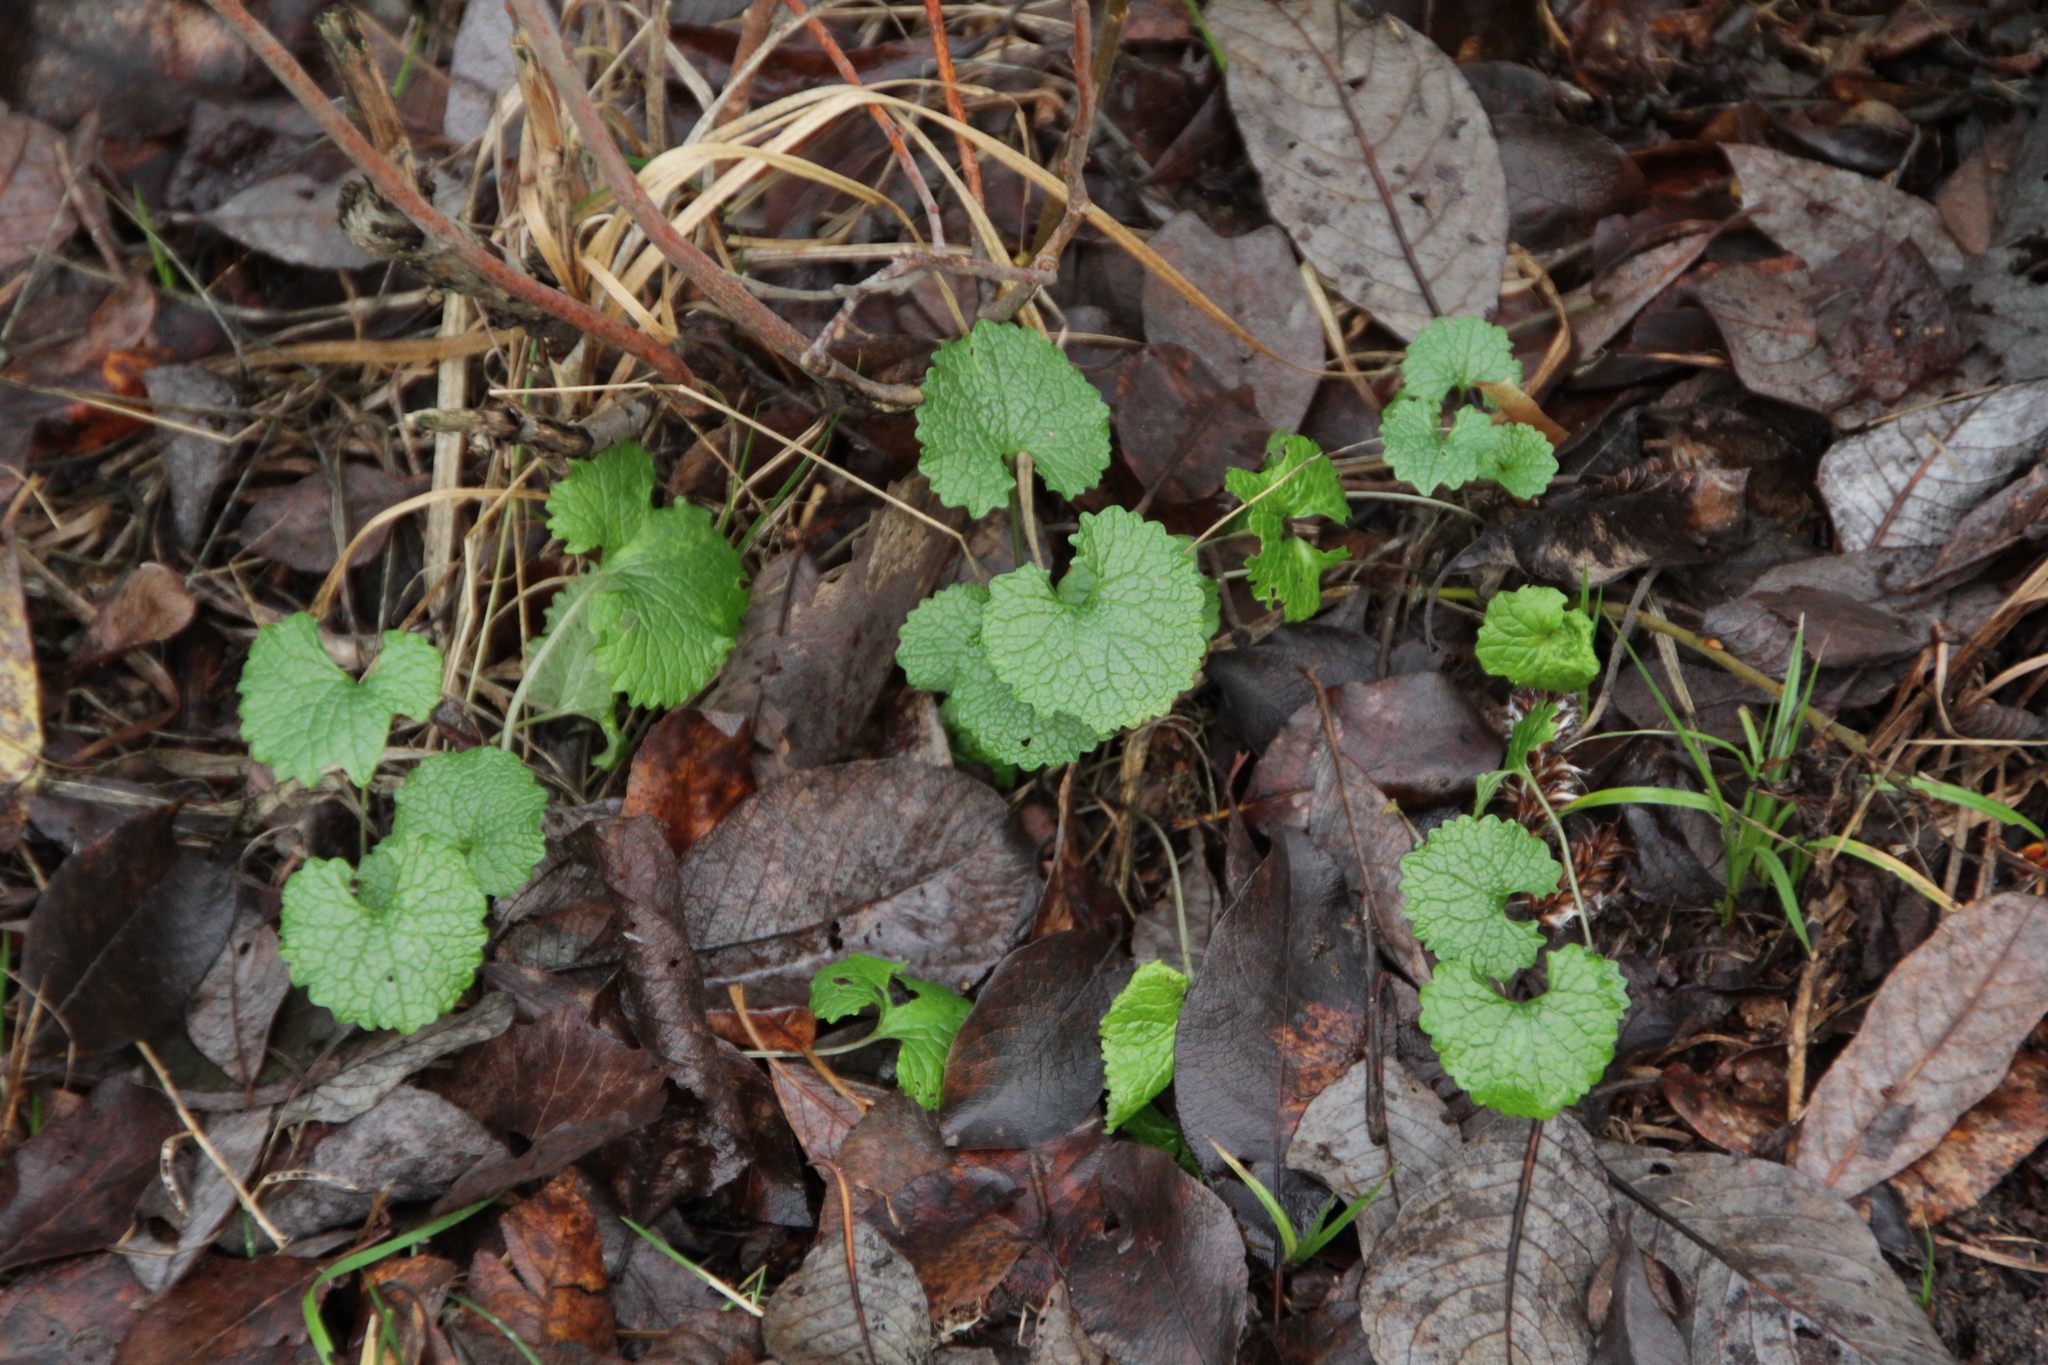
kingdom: Plantae
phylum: Tracheophyta
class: Magnoliopsida
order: Brassicales
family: Brassicaceae
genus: Alliaria
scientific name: Alliaria petiolata
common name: Garlic mustard
